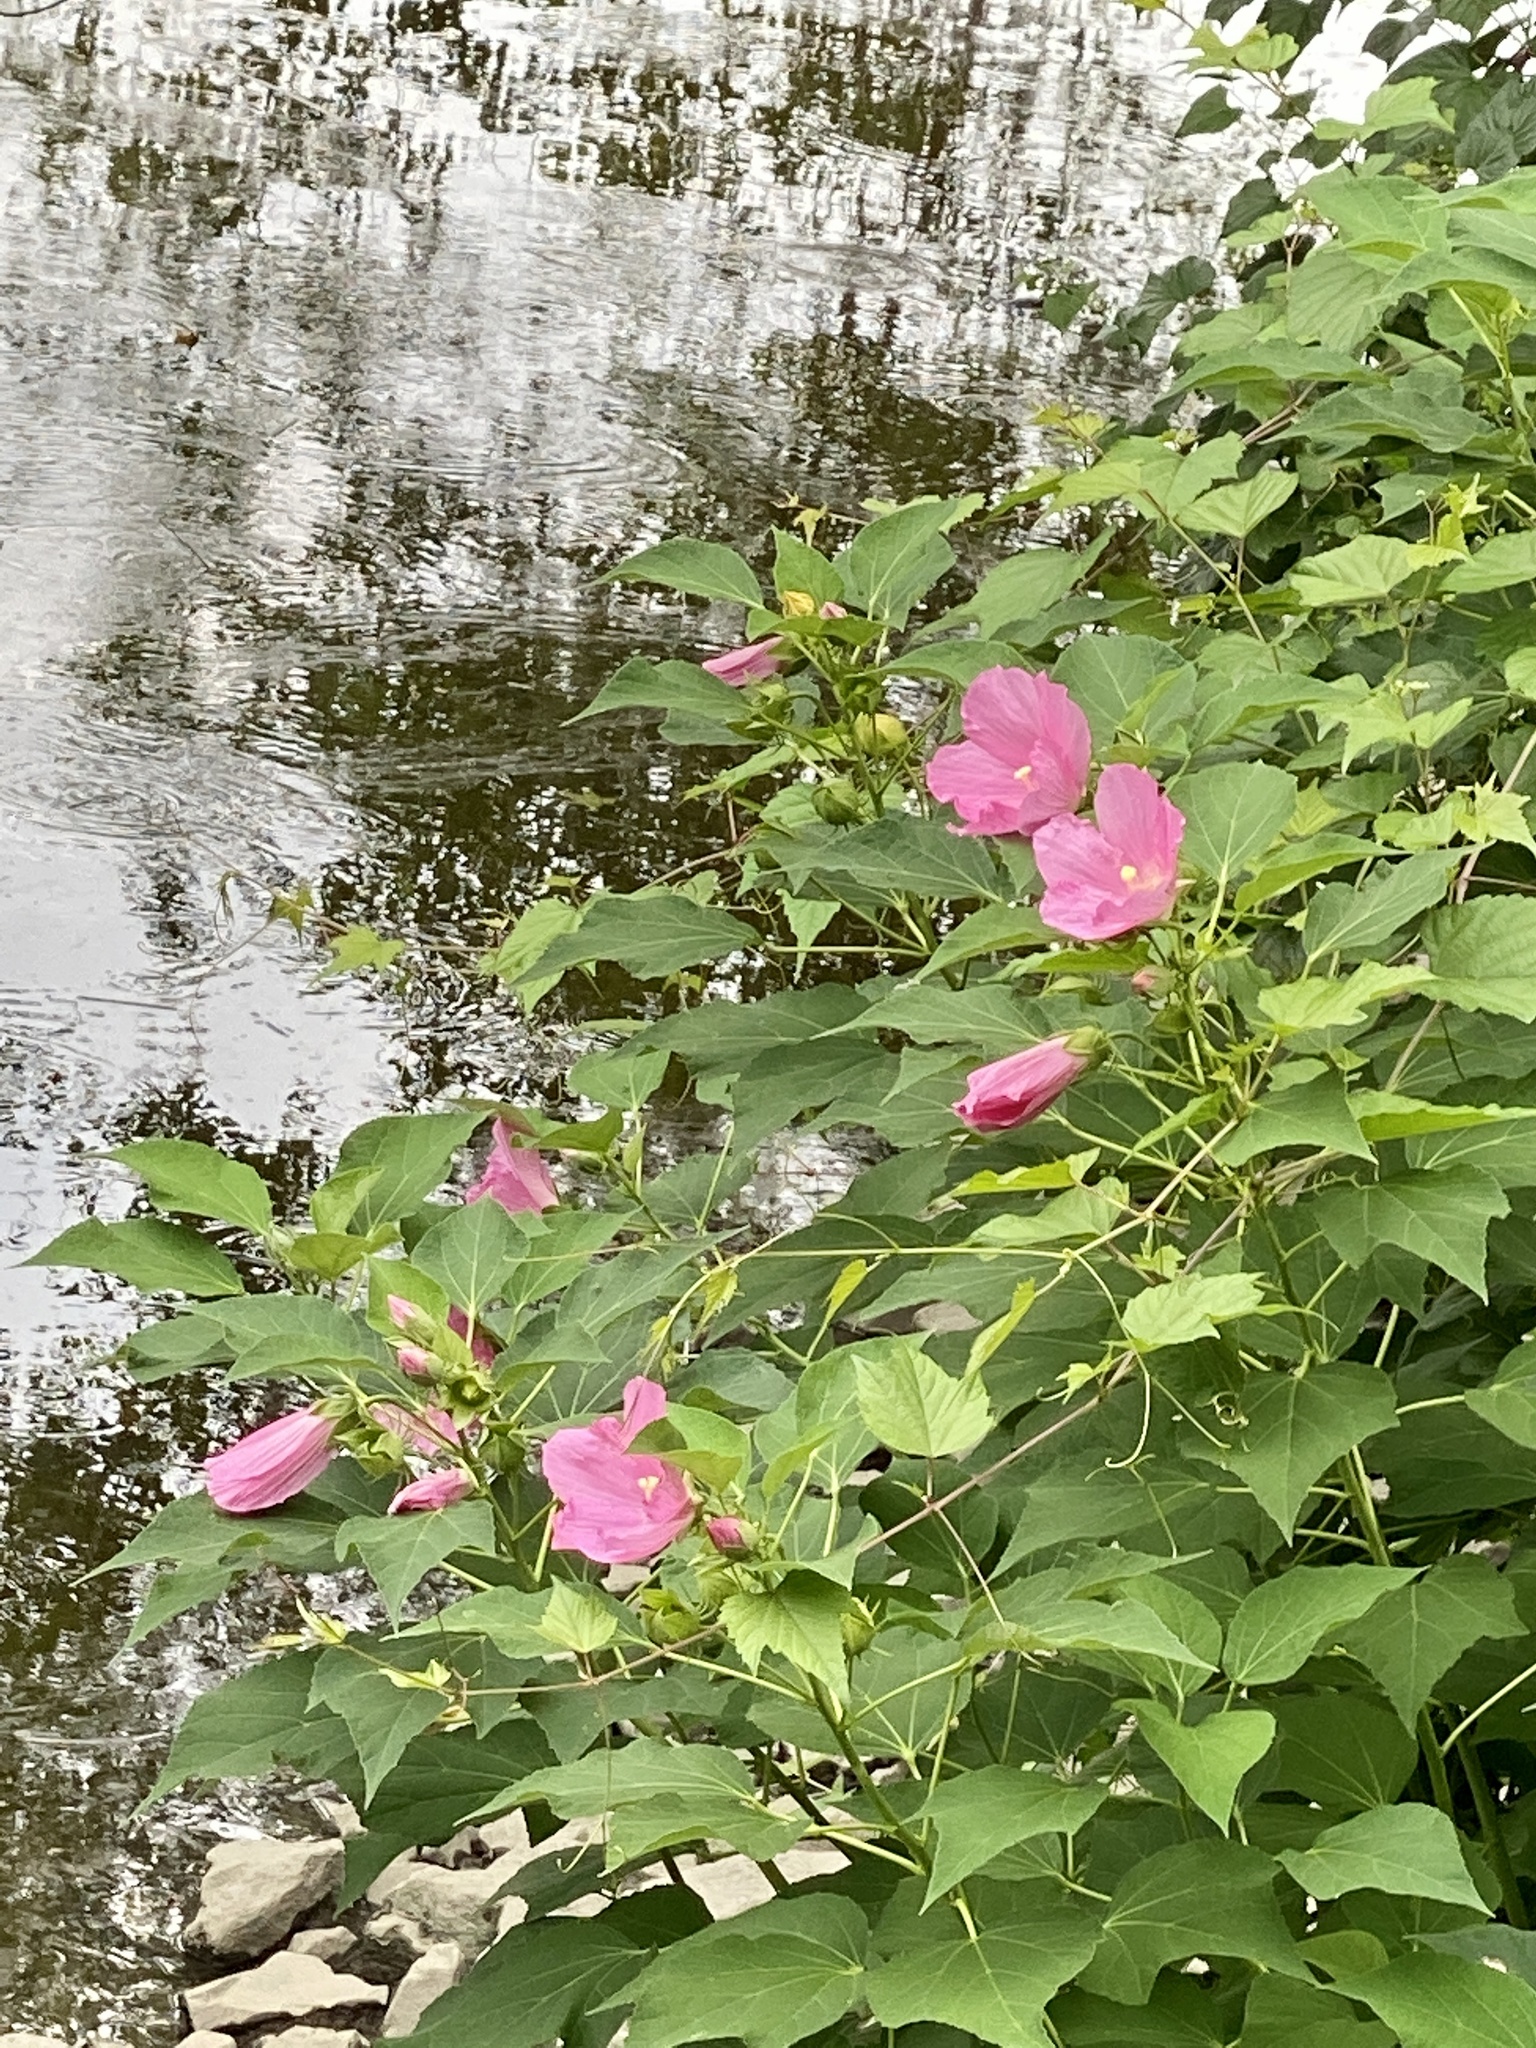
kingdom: Plantae
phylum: Tracheophyta
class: Magnoliopsida
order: Malvales
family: Malvaceae
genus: Hibiscus
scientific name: Hibiscus moscheutos
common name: Common rose-mallow
